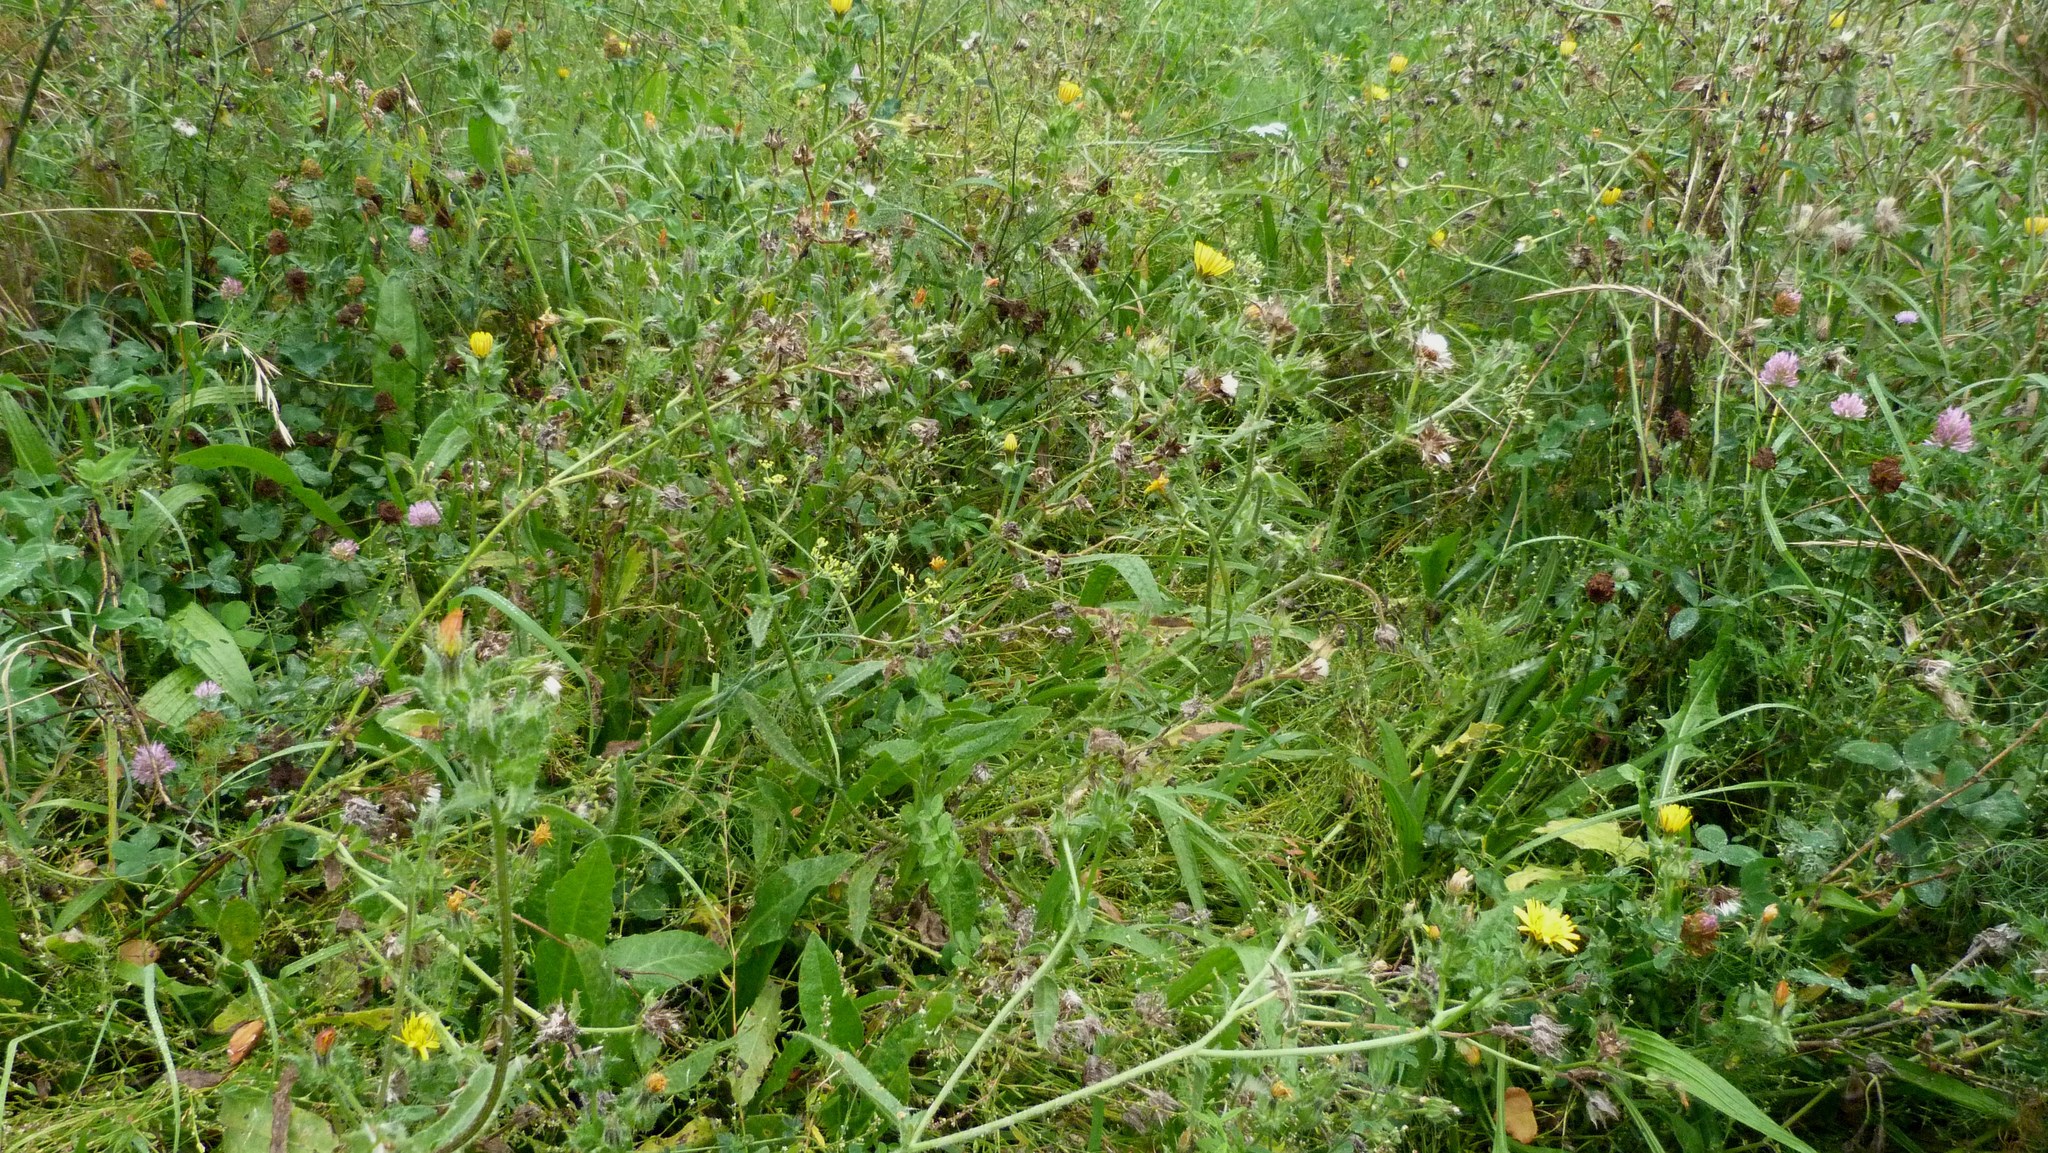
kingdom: Plantae
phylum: Tracheophyta
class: Magnoliopsida
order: Asterales
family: Asteraceae
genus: Helminthotheca
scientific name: Helminthotheca echioides
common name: Ox-tongue
